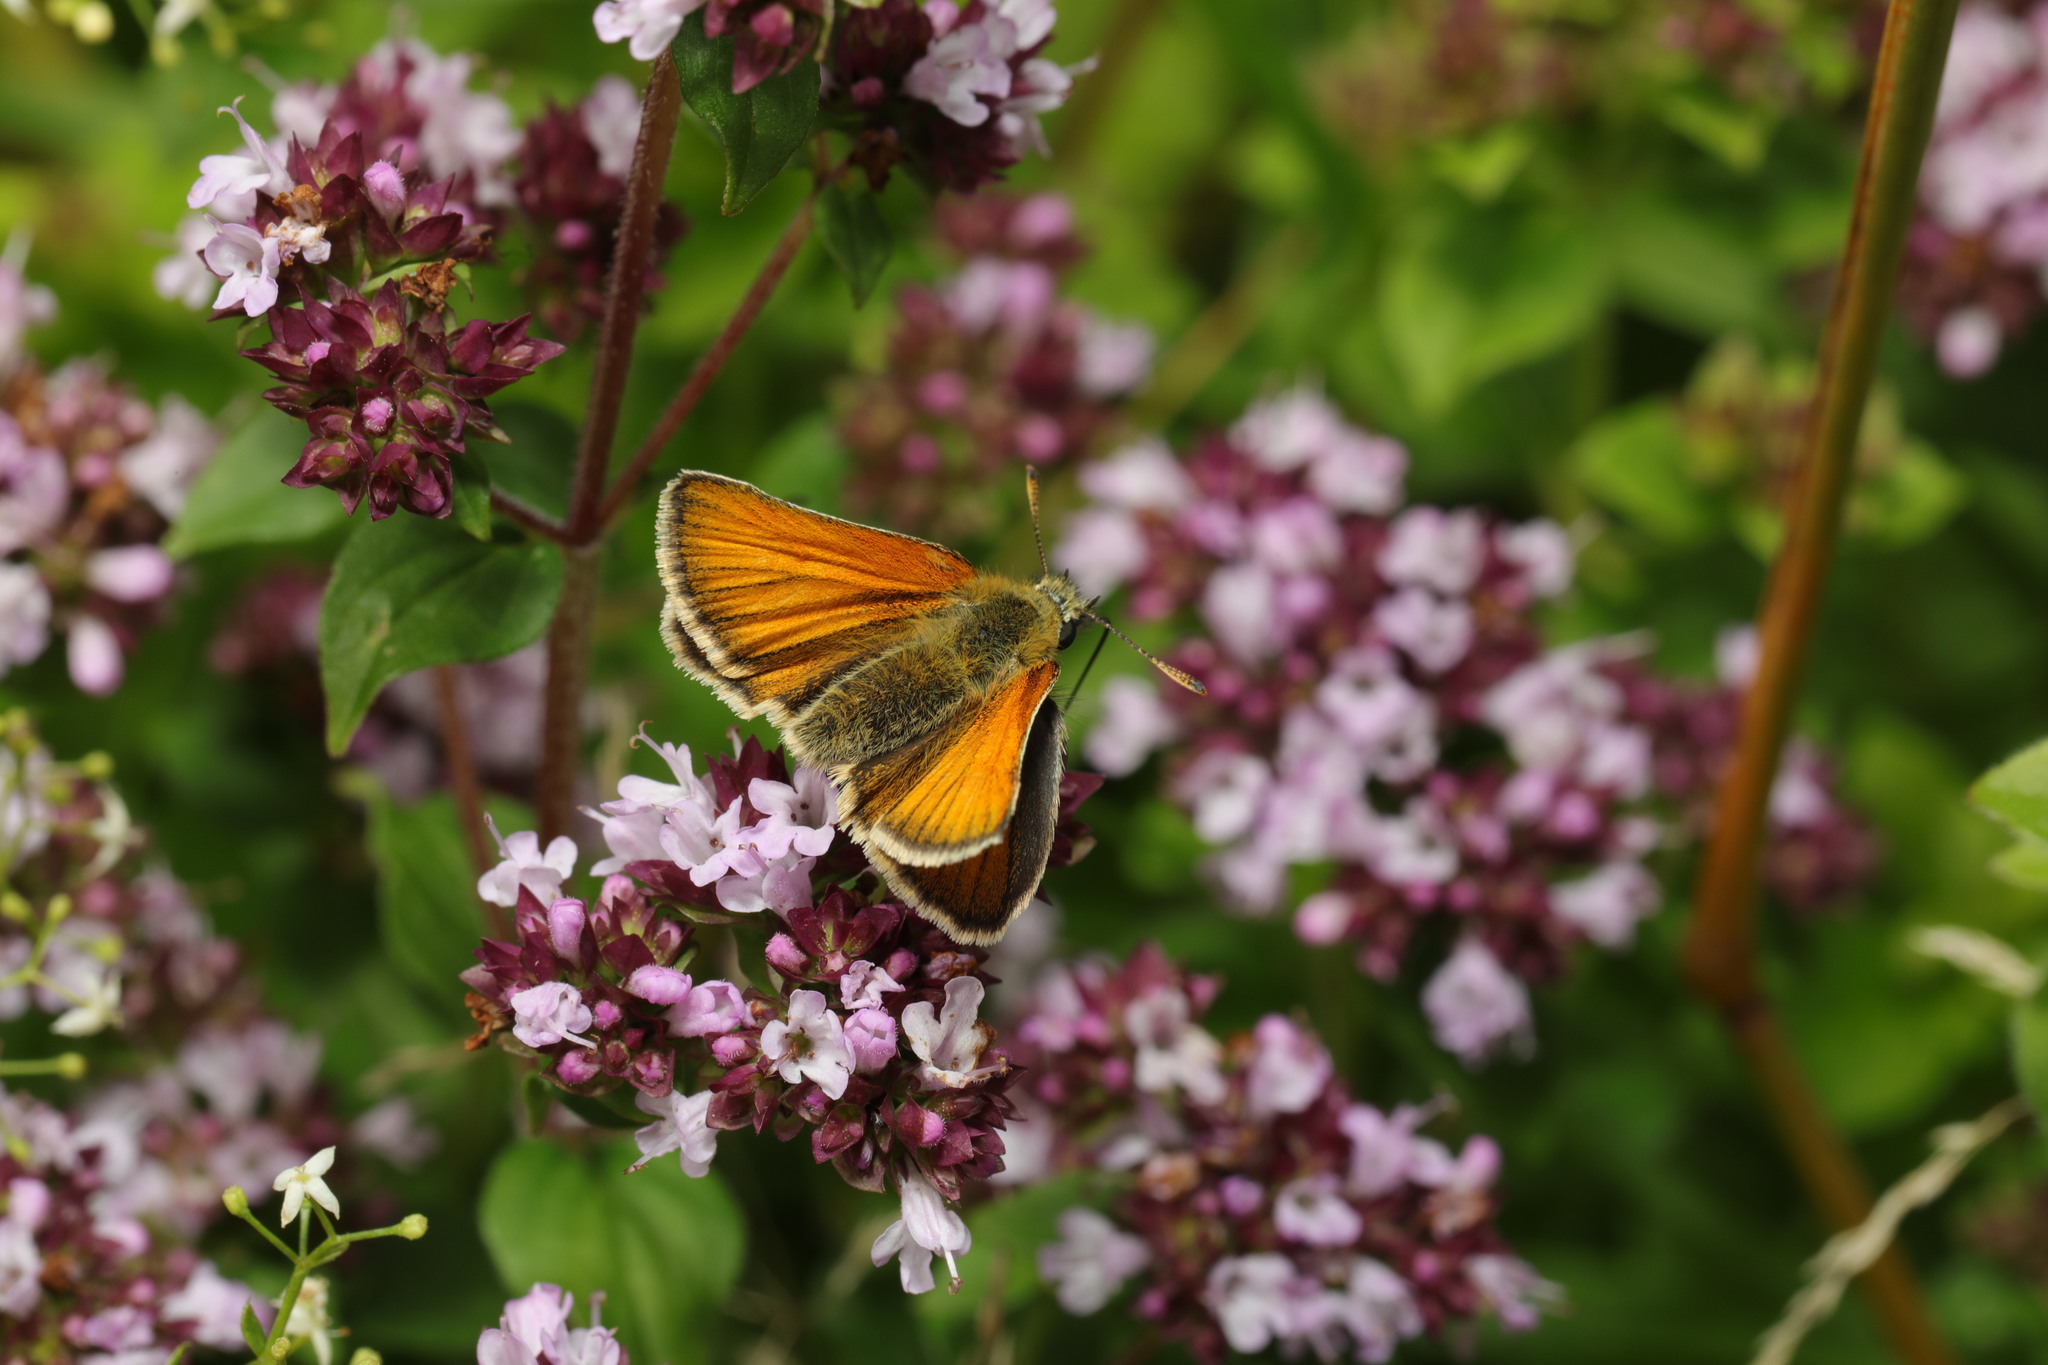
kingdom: Animalia
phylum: Arthropoda
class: Insecta
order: Lepidoptera
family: Hesperiidae
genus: Thymelicus
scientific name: Thymelicus sylvestris
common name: Small skipper
